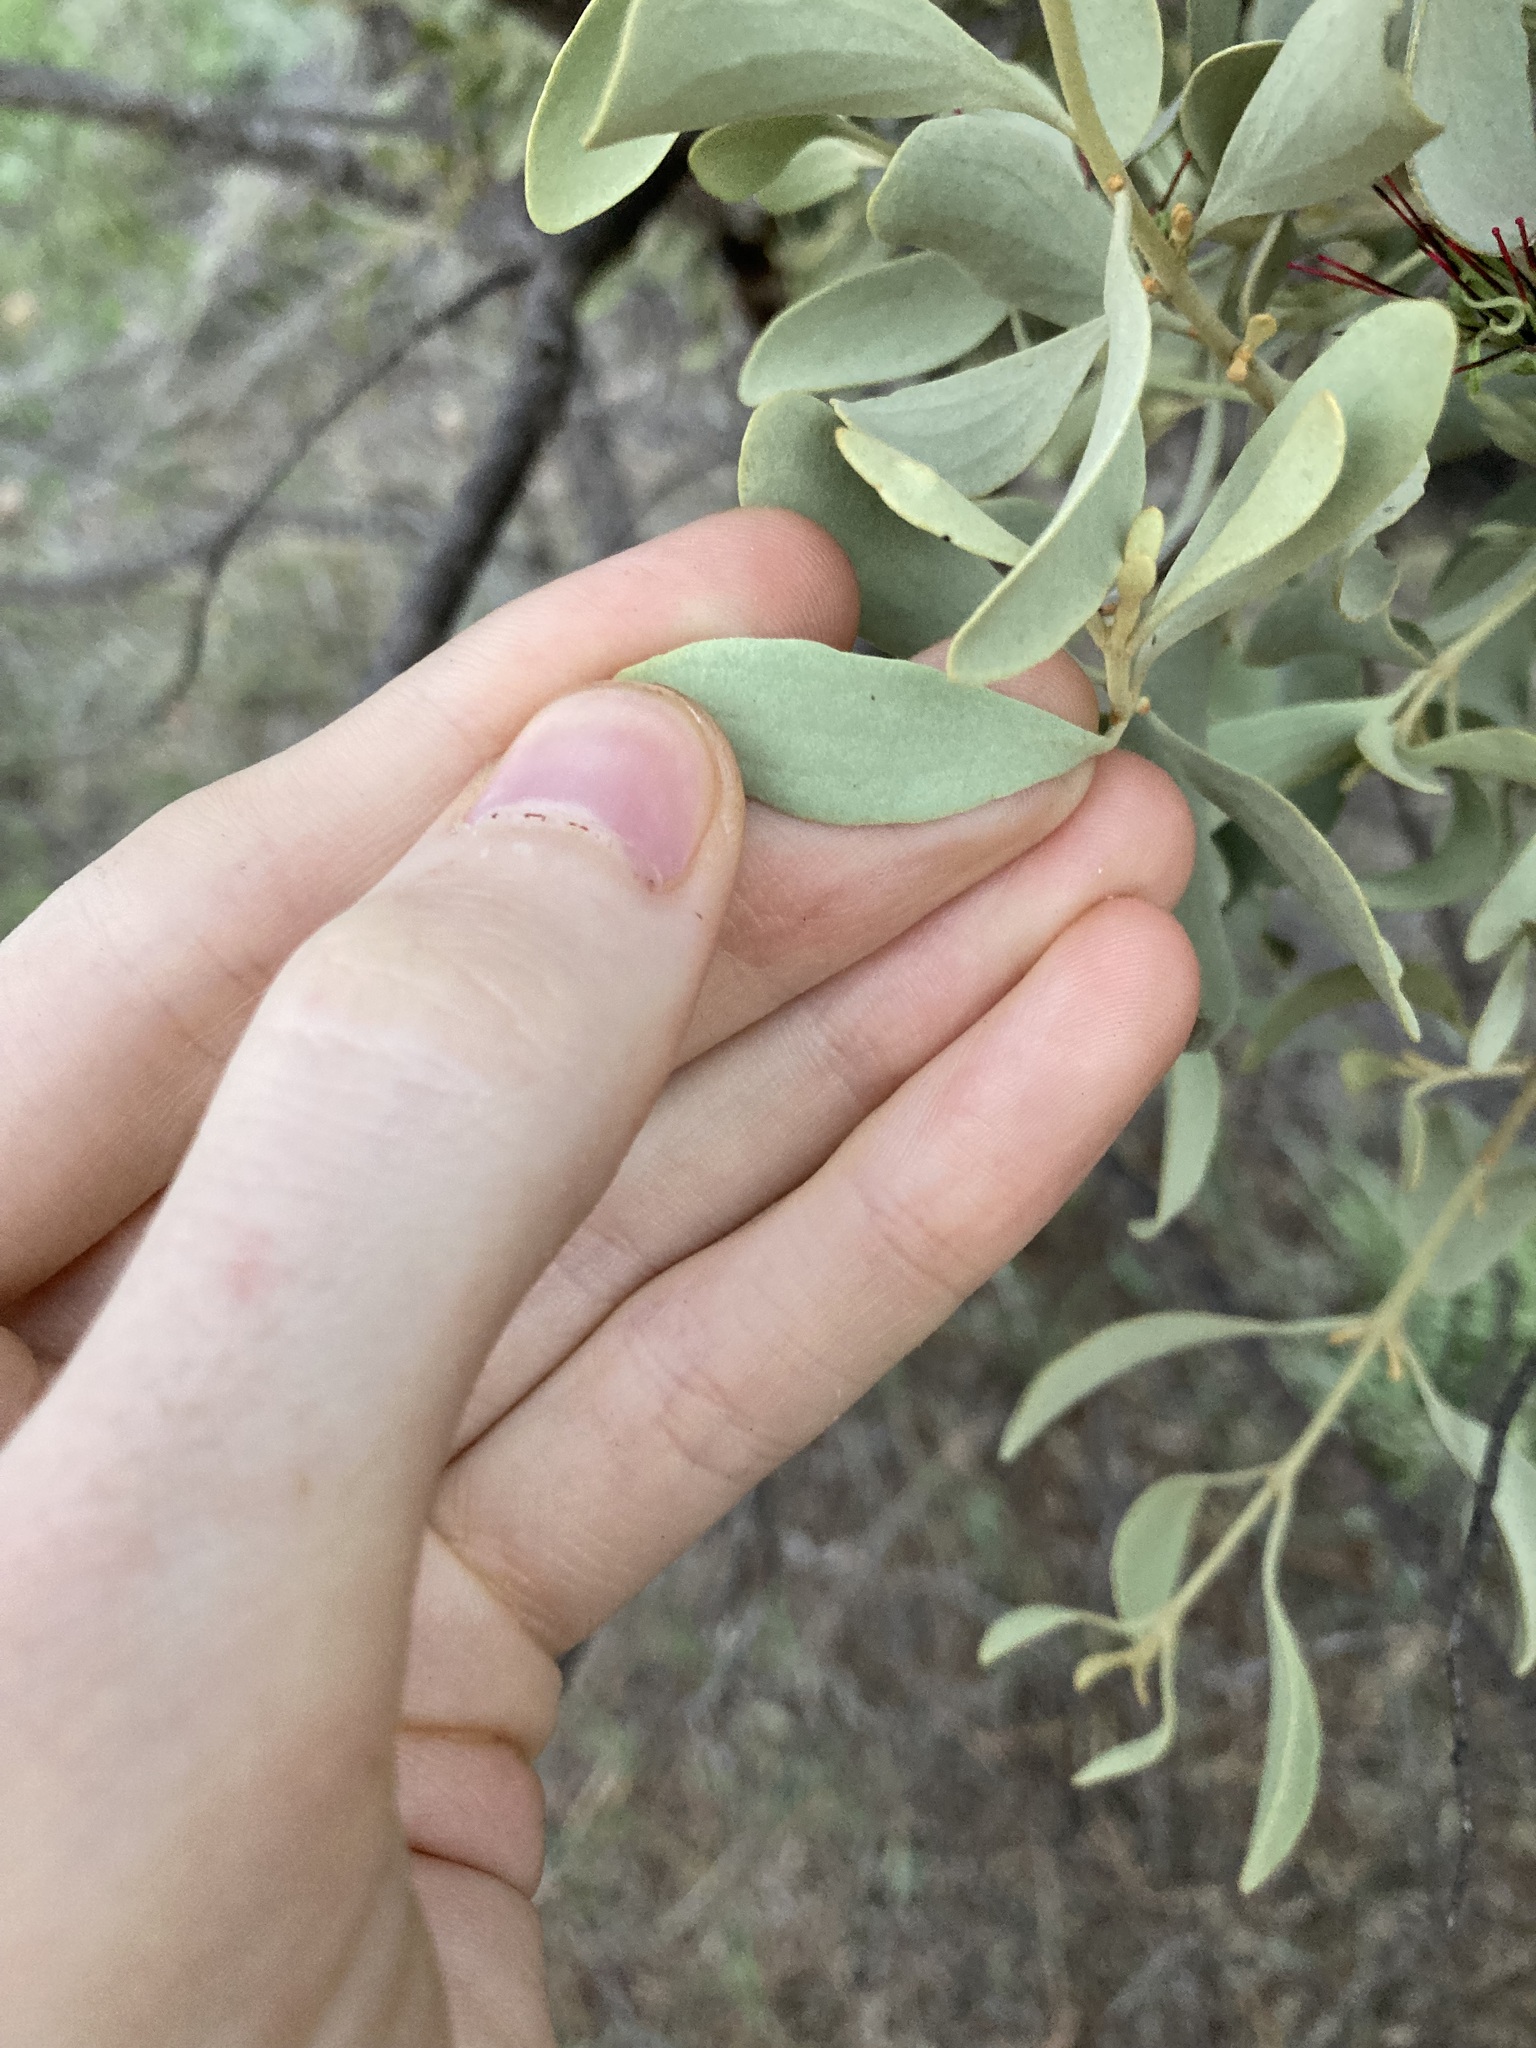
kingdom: Plantae
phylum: Tracheophyta
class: Magnoliopsida
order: Santalales
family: Loranthaceae
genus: Amyema
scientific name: Amyema fitzgeraldii
